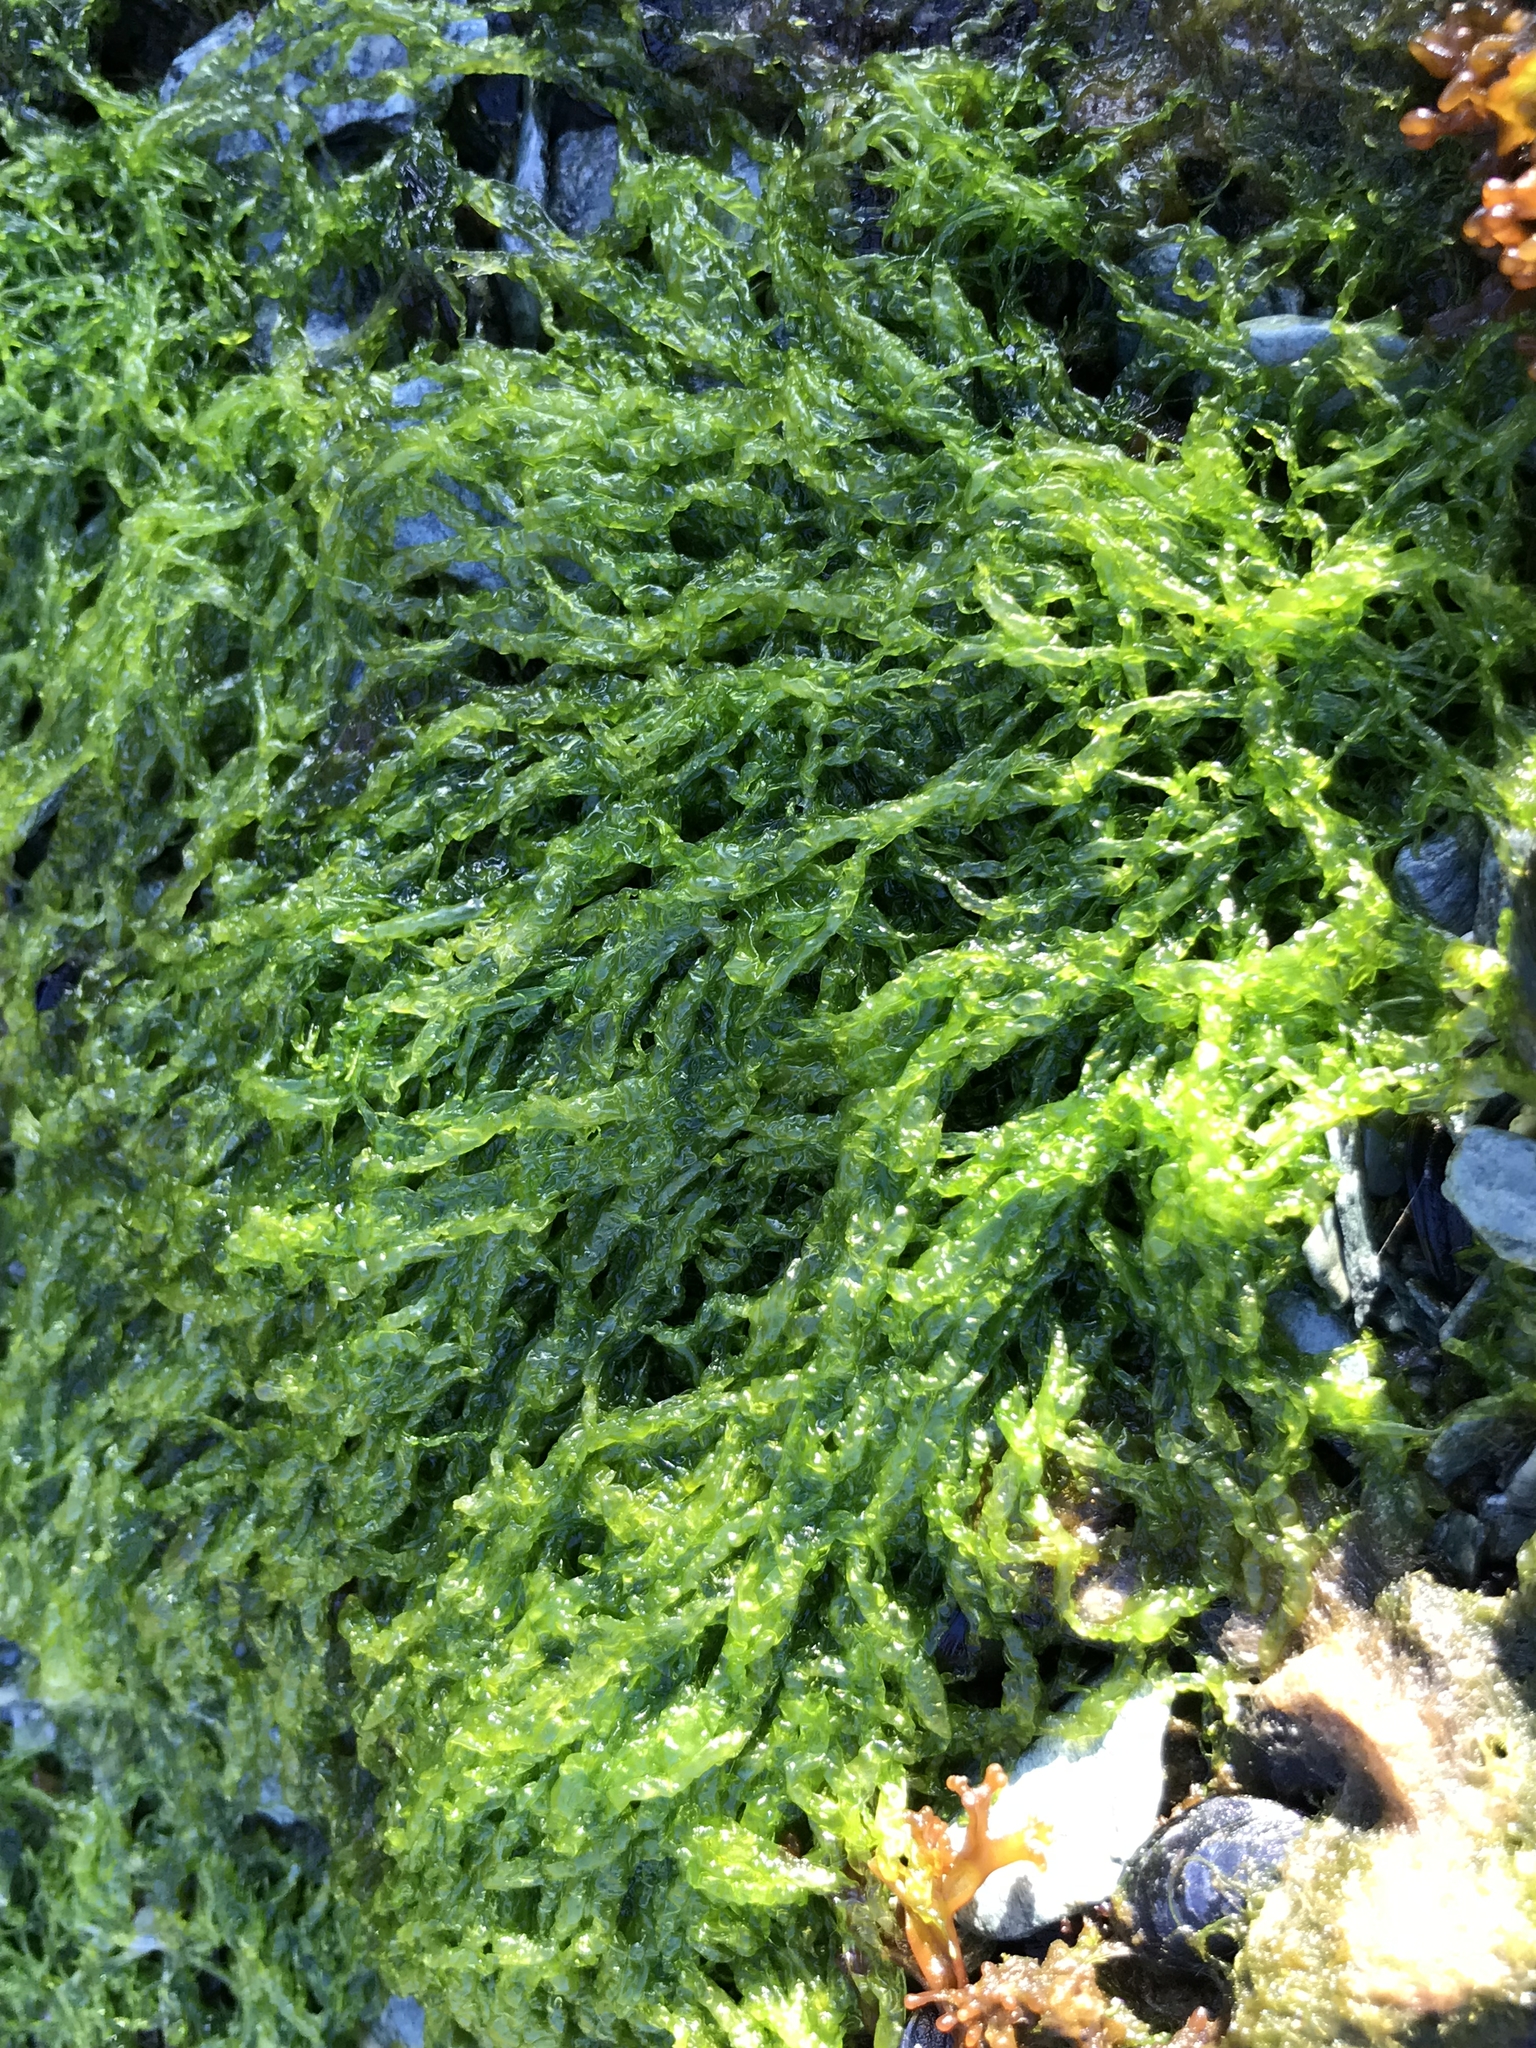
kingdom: Plantae
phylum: Chlorophyta
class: Ulvophyceae
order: Ulvales
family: Ulvaceae
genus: Ulva
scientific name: Ulva intestinalis
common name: Gut weed
